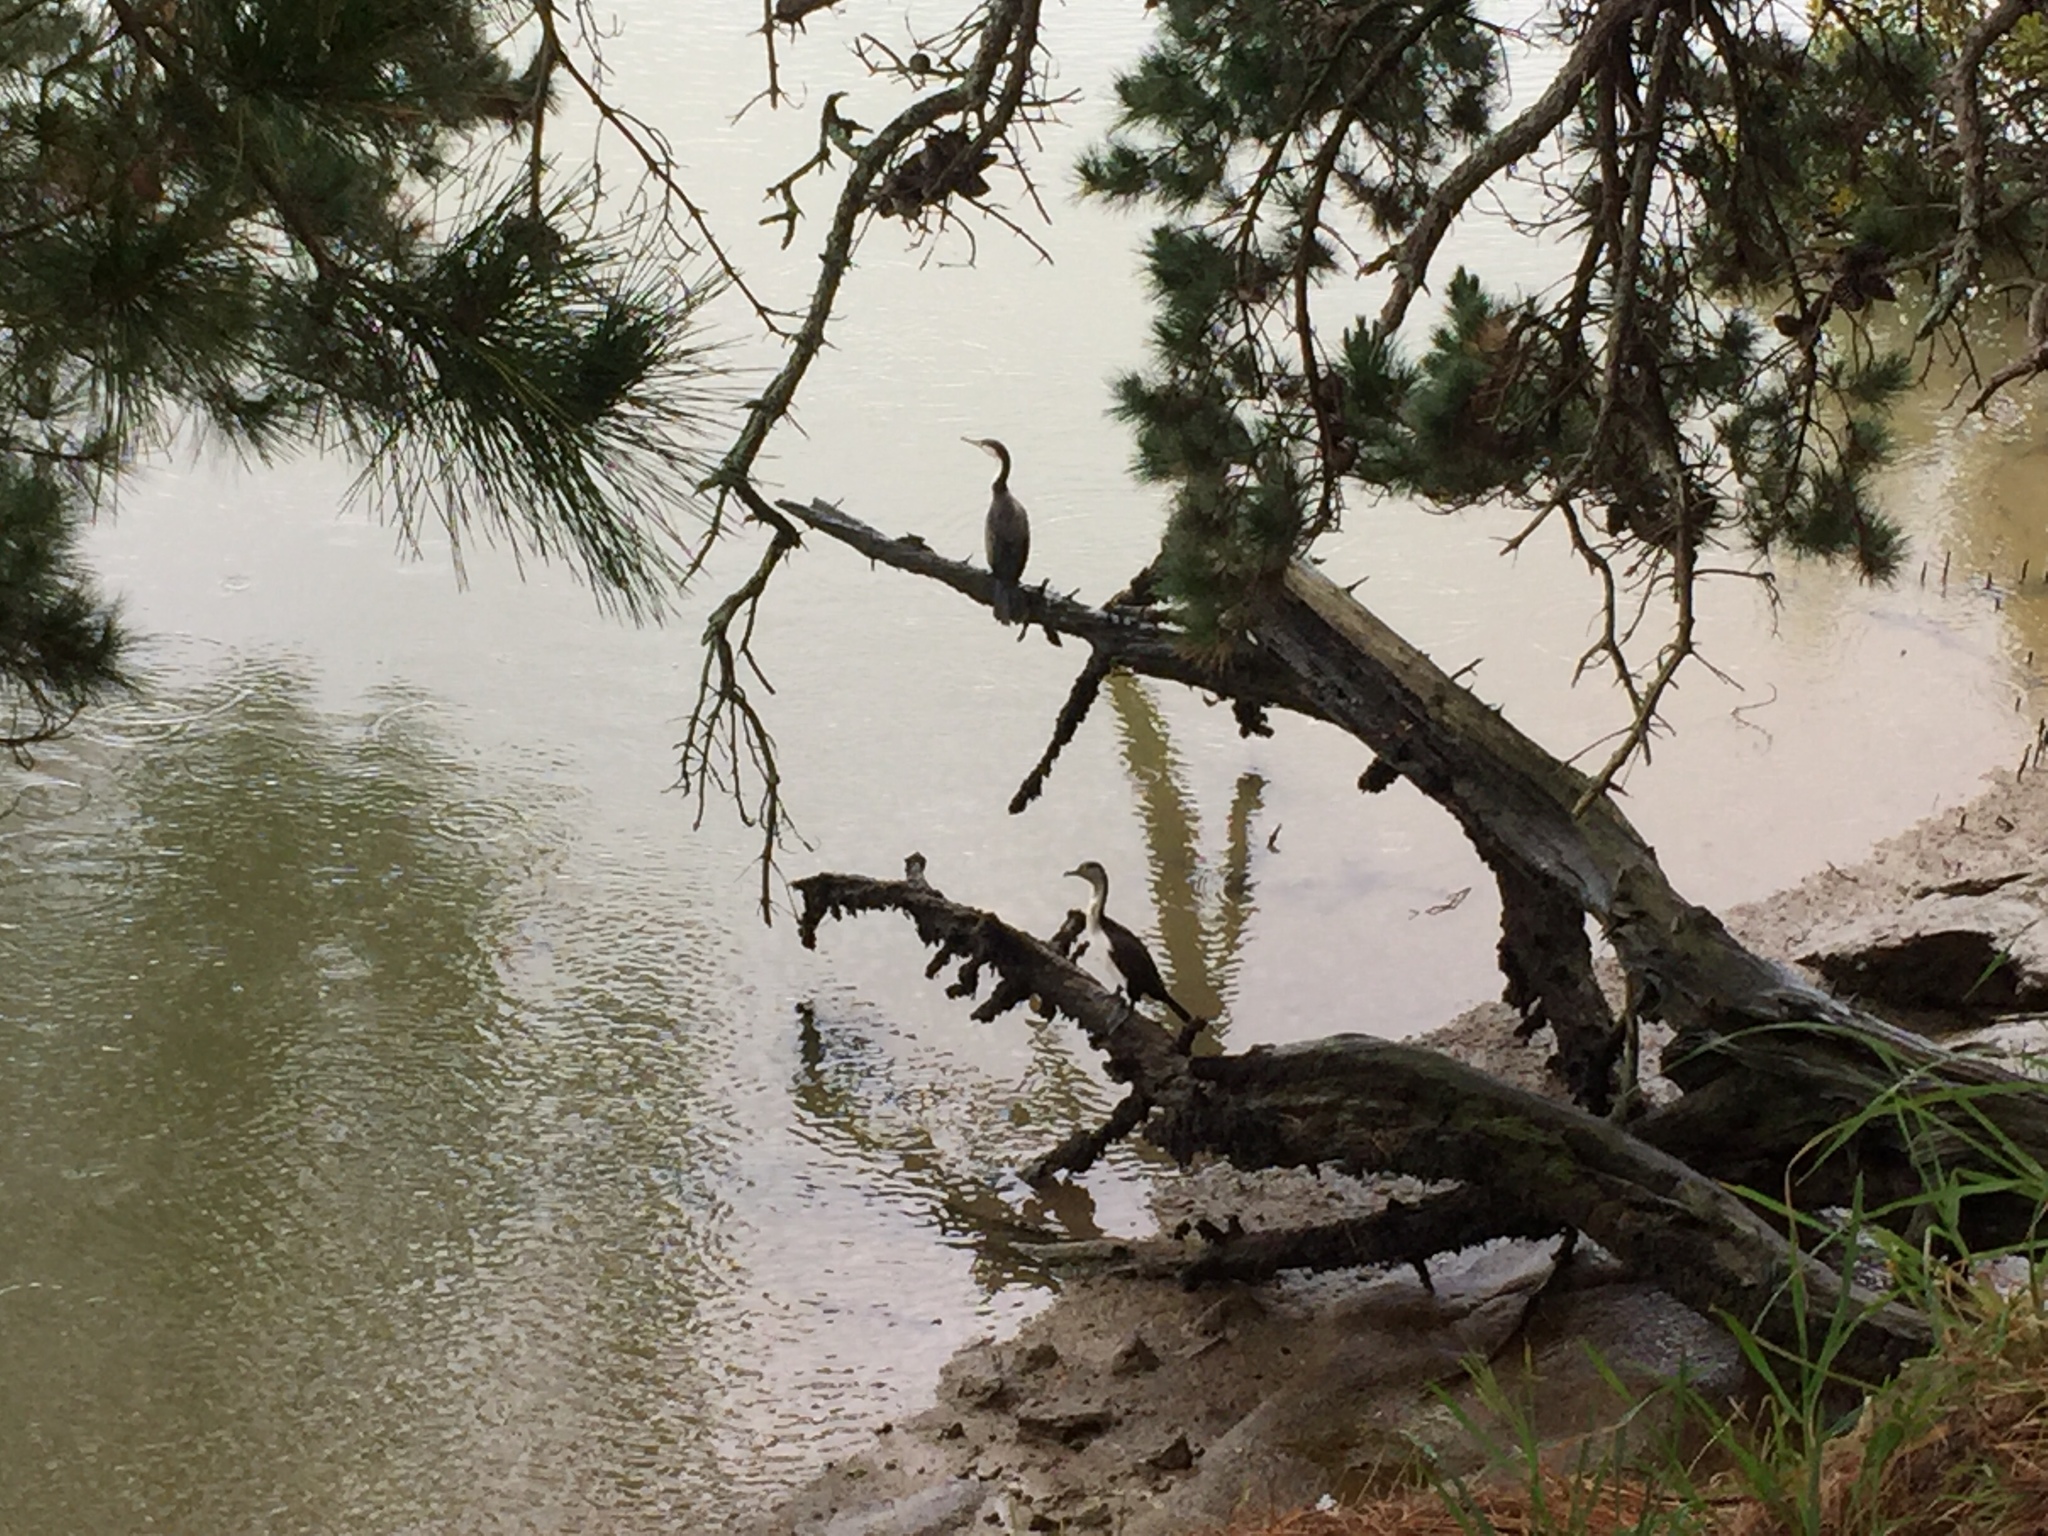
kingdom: Animalia
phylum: Chordata
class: Aves
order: Suliformes
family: Phalacrocoracidae
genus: Phalacrocorax
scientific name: Phalacrocorax varius
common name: Pied cormorant
